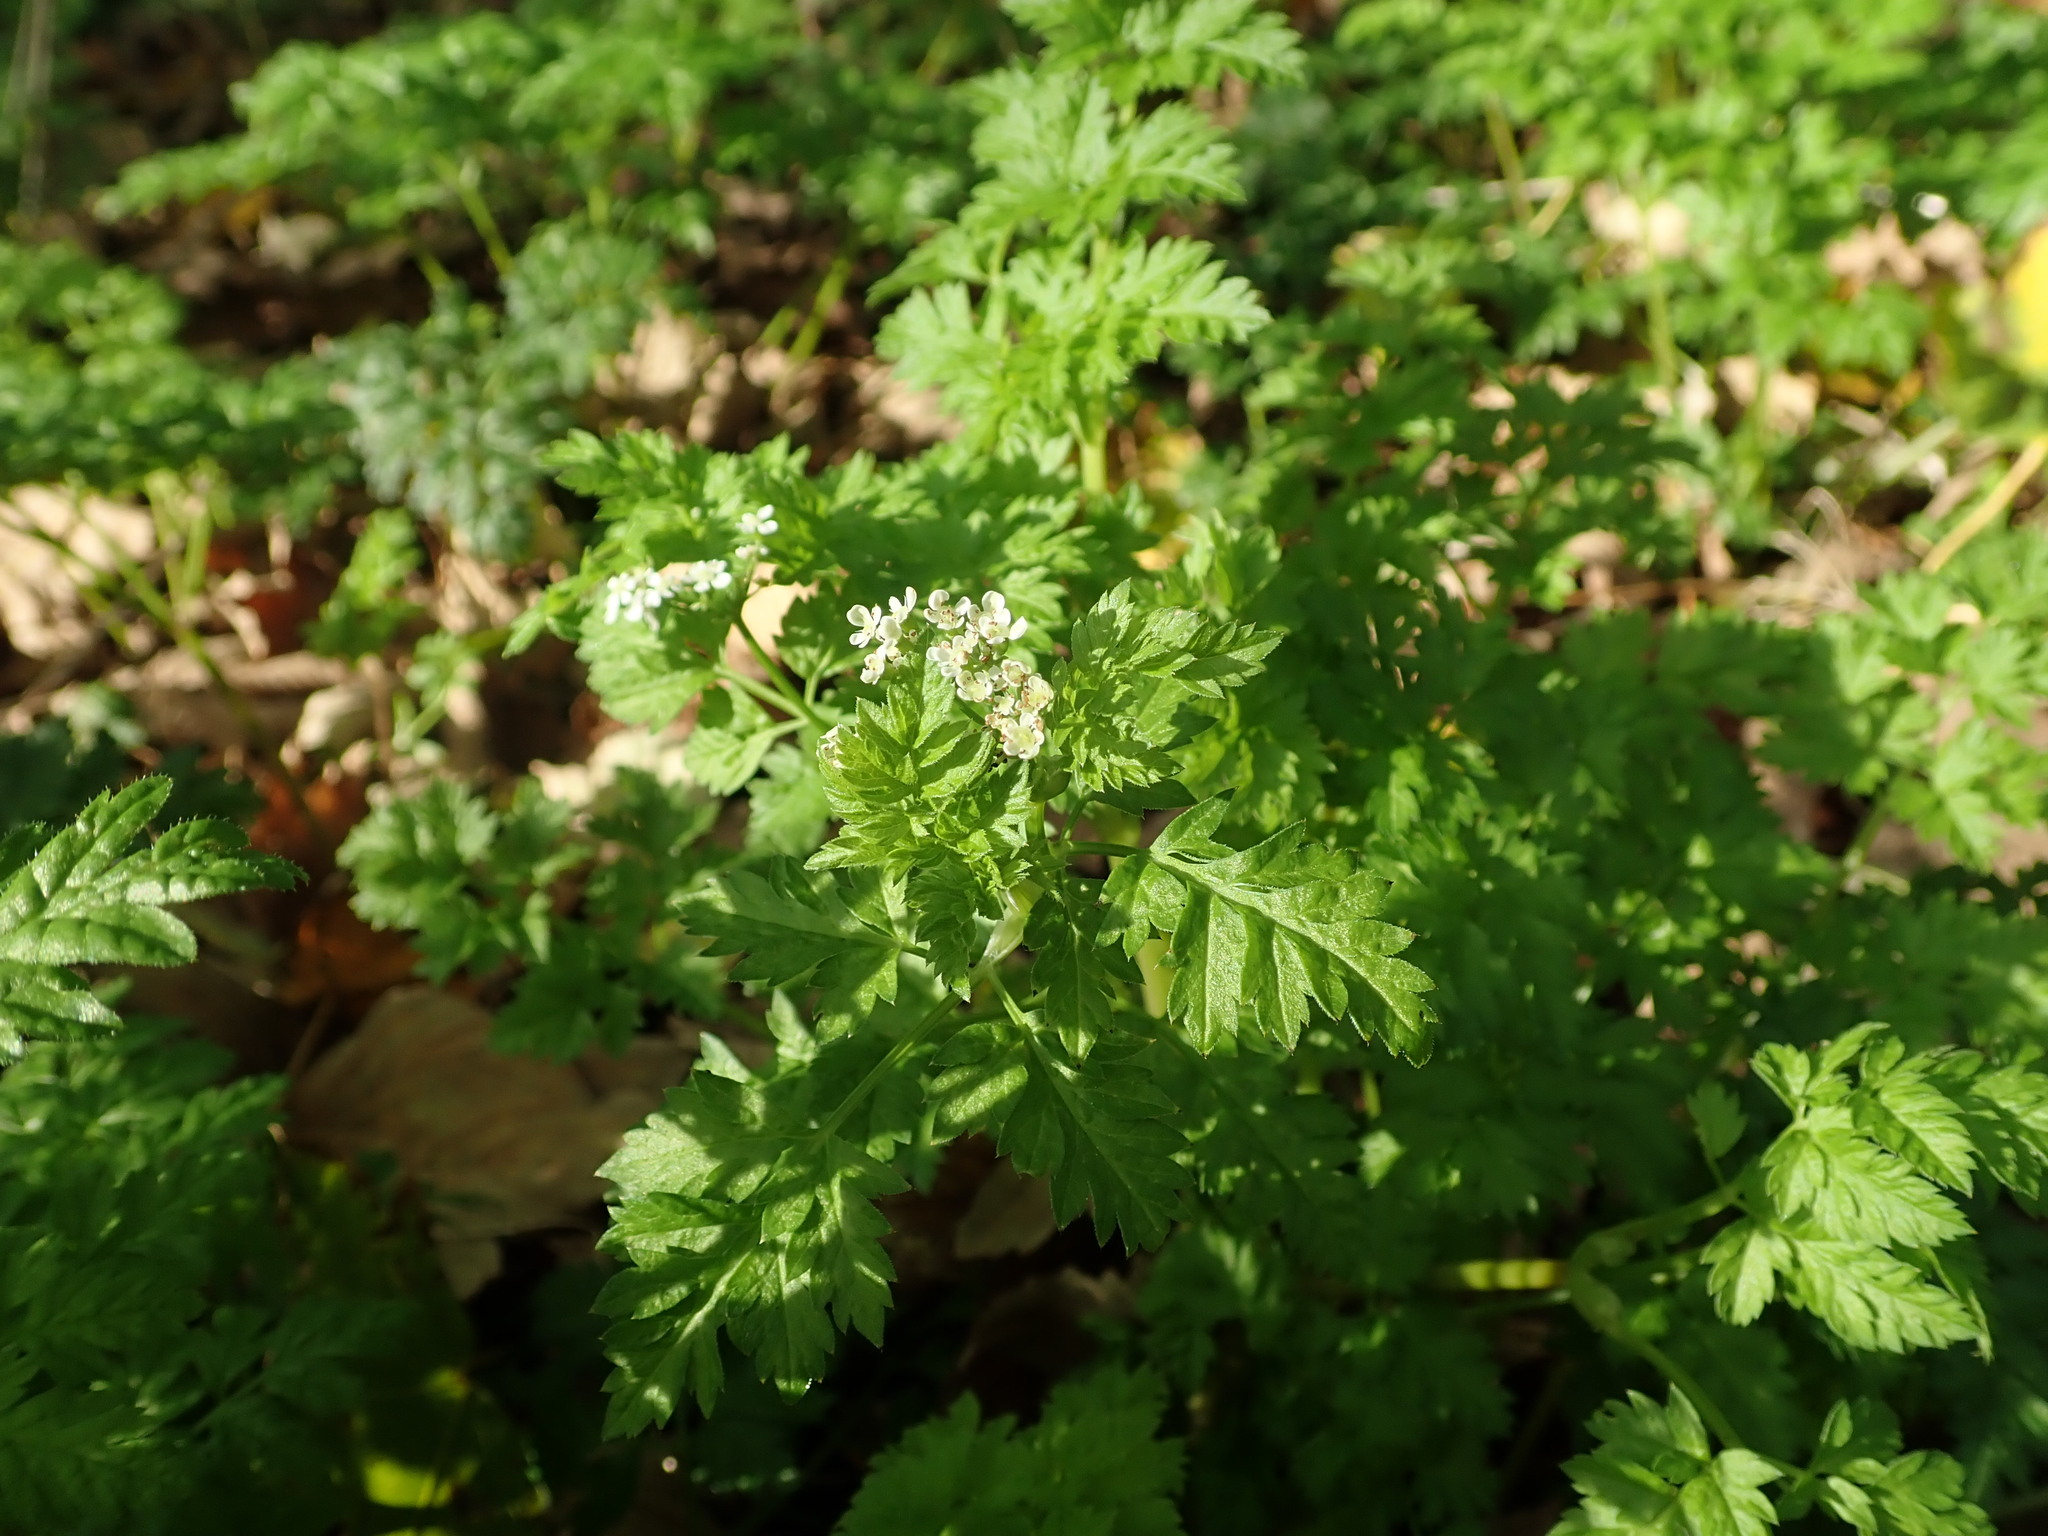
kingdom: Plantae
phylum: Tracheophyta
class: Magnoliopsida
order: Apiales
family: Apiaceae
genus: Anthriscus
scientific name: Anthriscus sylvestris
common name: Cow parsley
